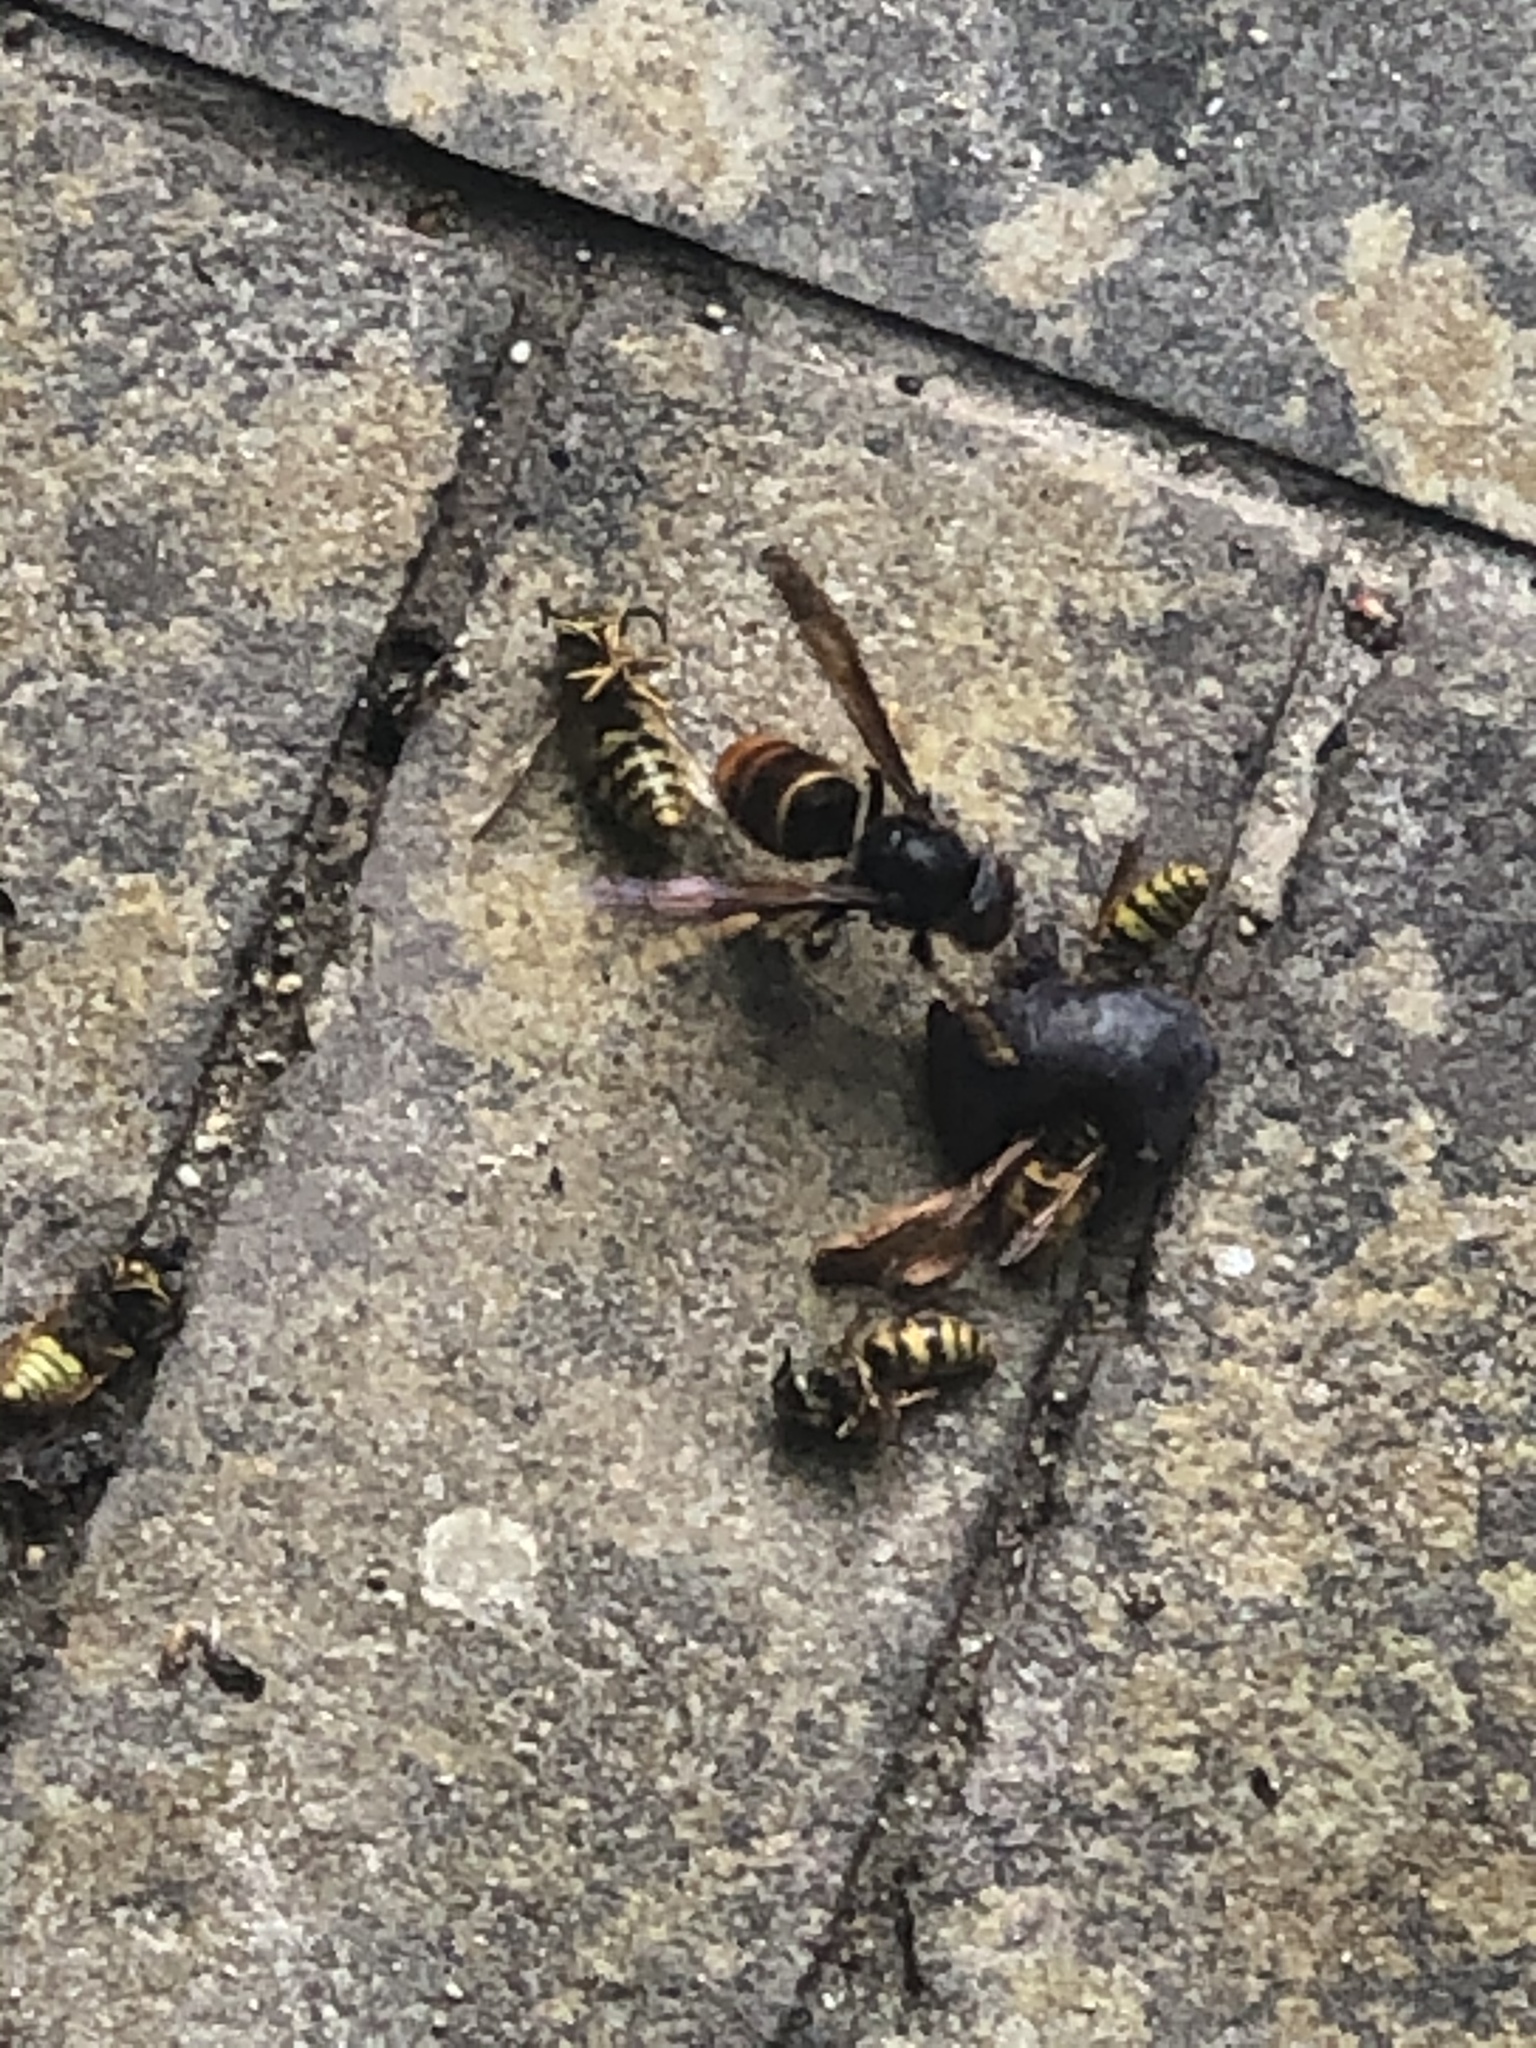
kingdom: Animalia
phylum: Arthropoda
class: Insecta
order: Hymenoptera
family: Vespidae
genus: Vespa
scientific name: Vespa velutina
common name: Asian hornet
